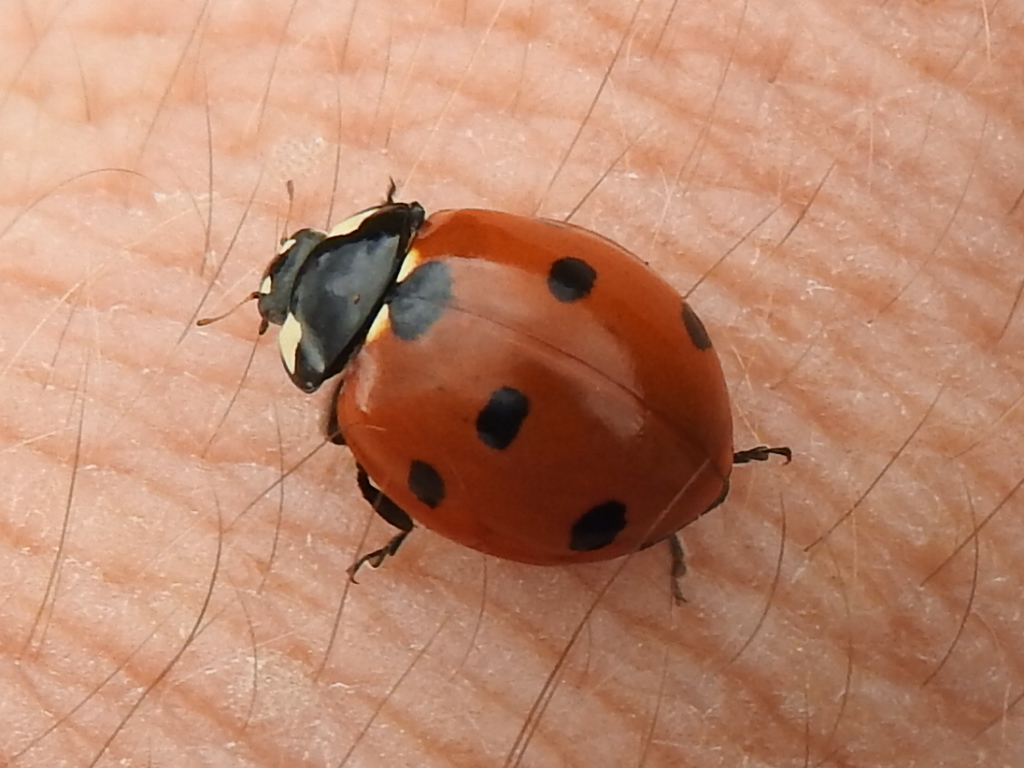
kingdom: Animalia
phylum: Arthropoda
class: Insecta
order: Coleoptera
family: Coccinellidae
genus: Coccinella
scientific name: Coccinella septempunctata
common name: Sevenspotted lady beetle
